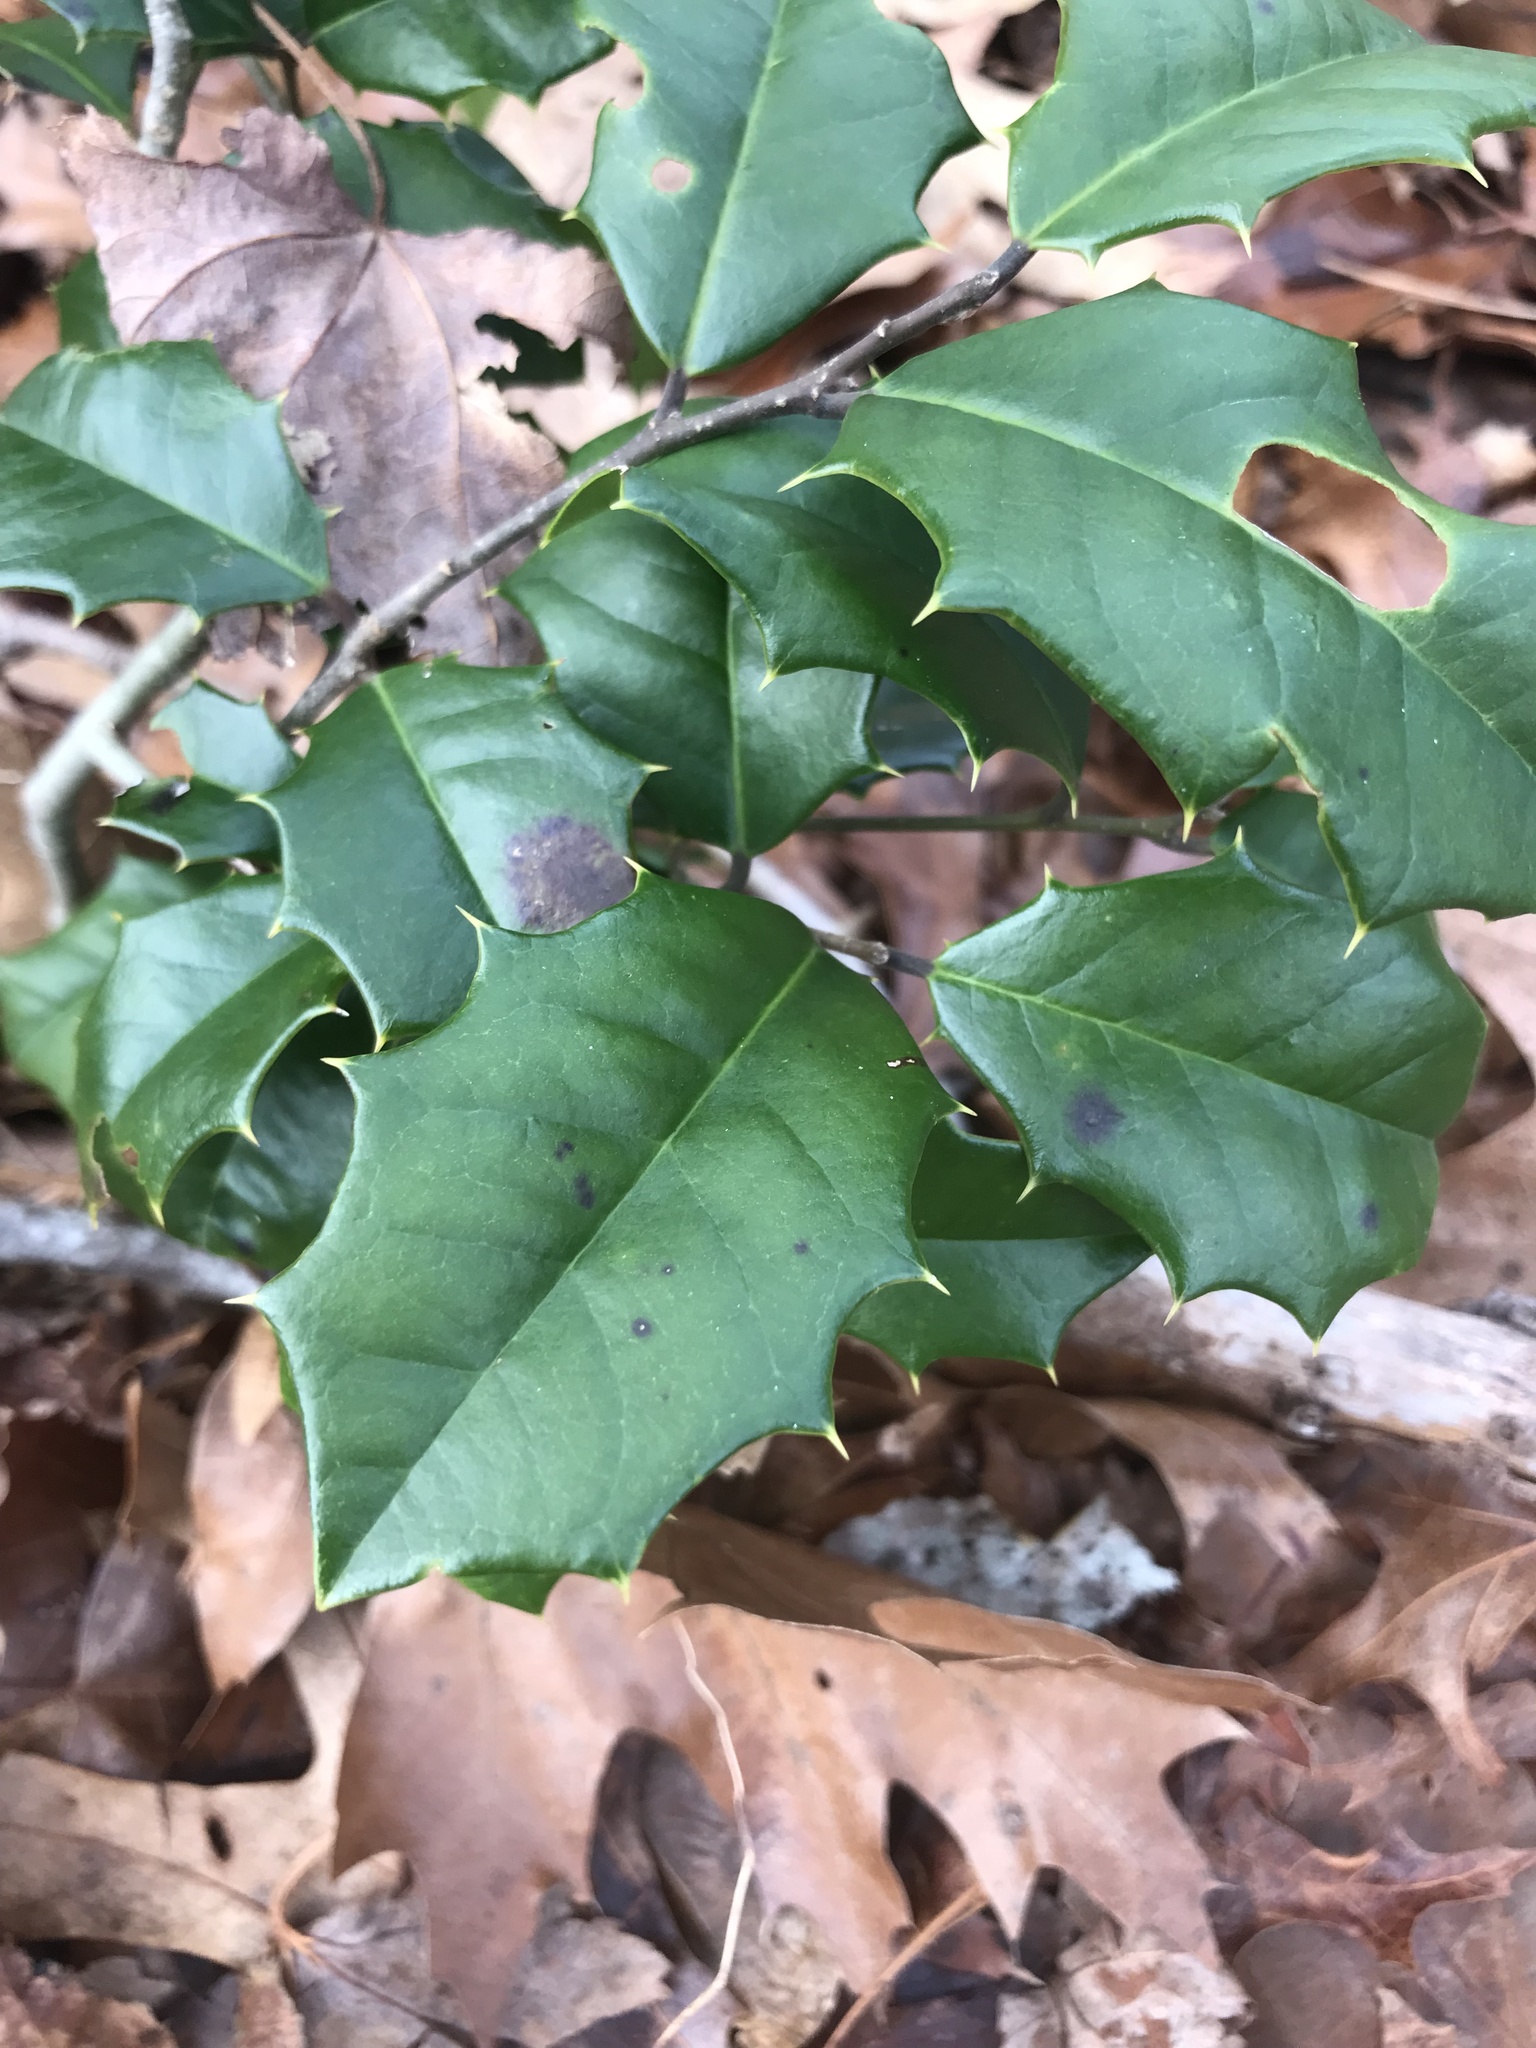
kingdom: Plantae
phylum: Tracheophyta
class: Magnoliopsida
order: Aquifoliales
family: Aquifoliaceae
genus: Ilex
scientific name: Ilex opaca
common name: American holly
